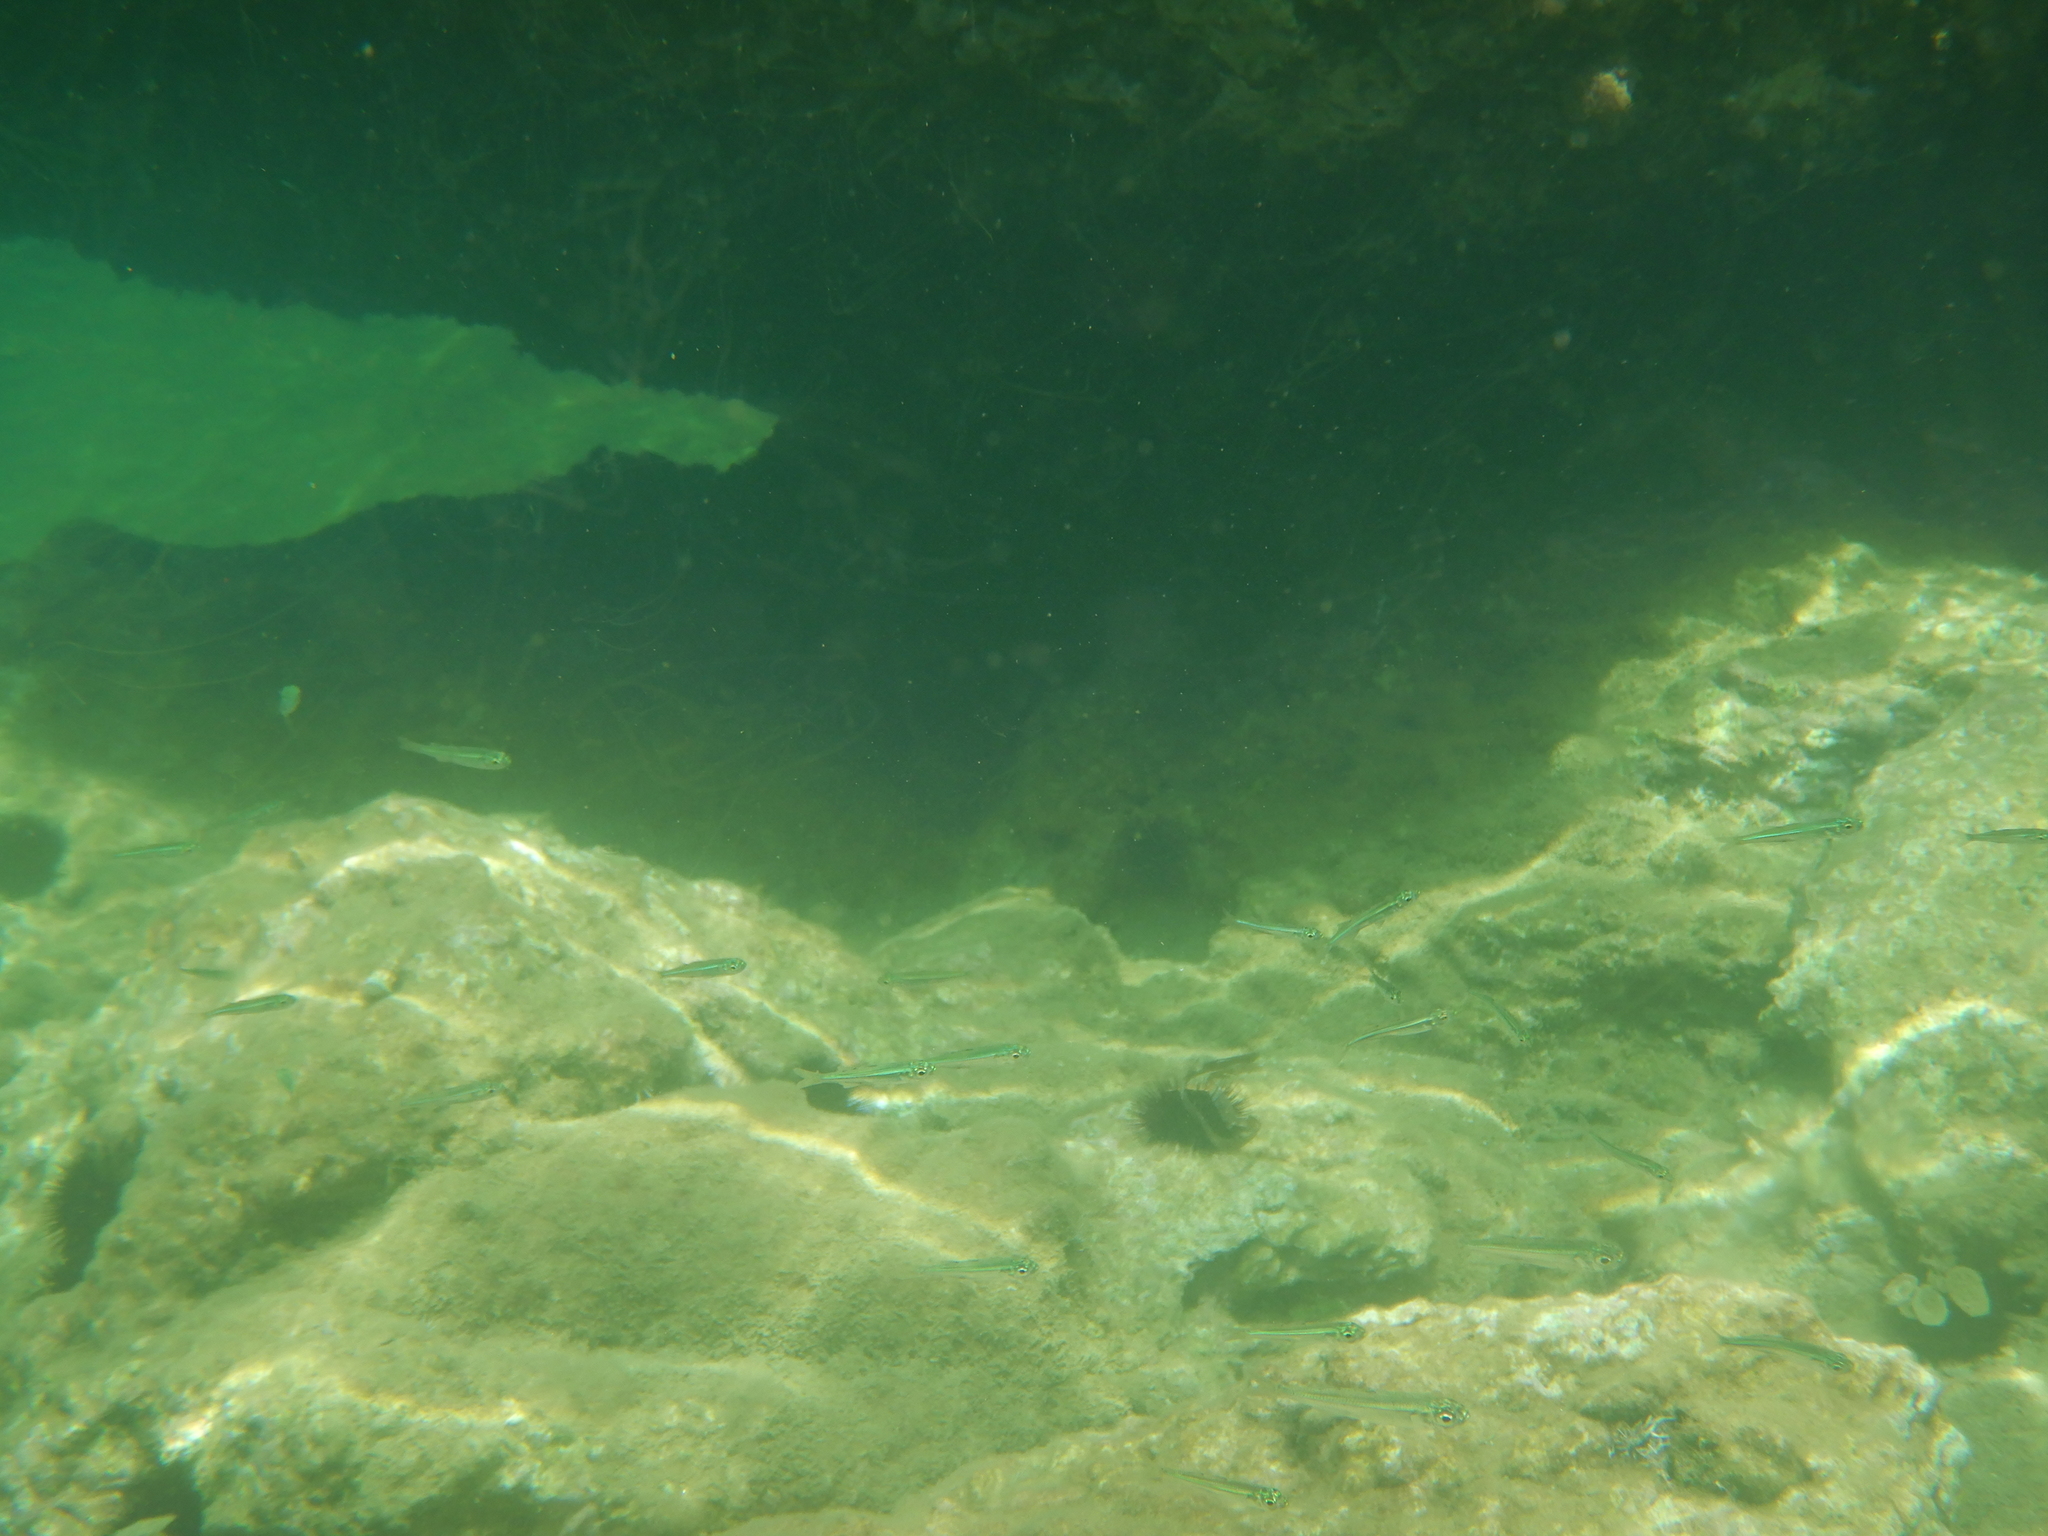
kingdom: Animalia
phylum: Chordata
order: Atheriniformes
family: Atherinidae
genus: Atherina
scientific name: Atherina
